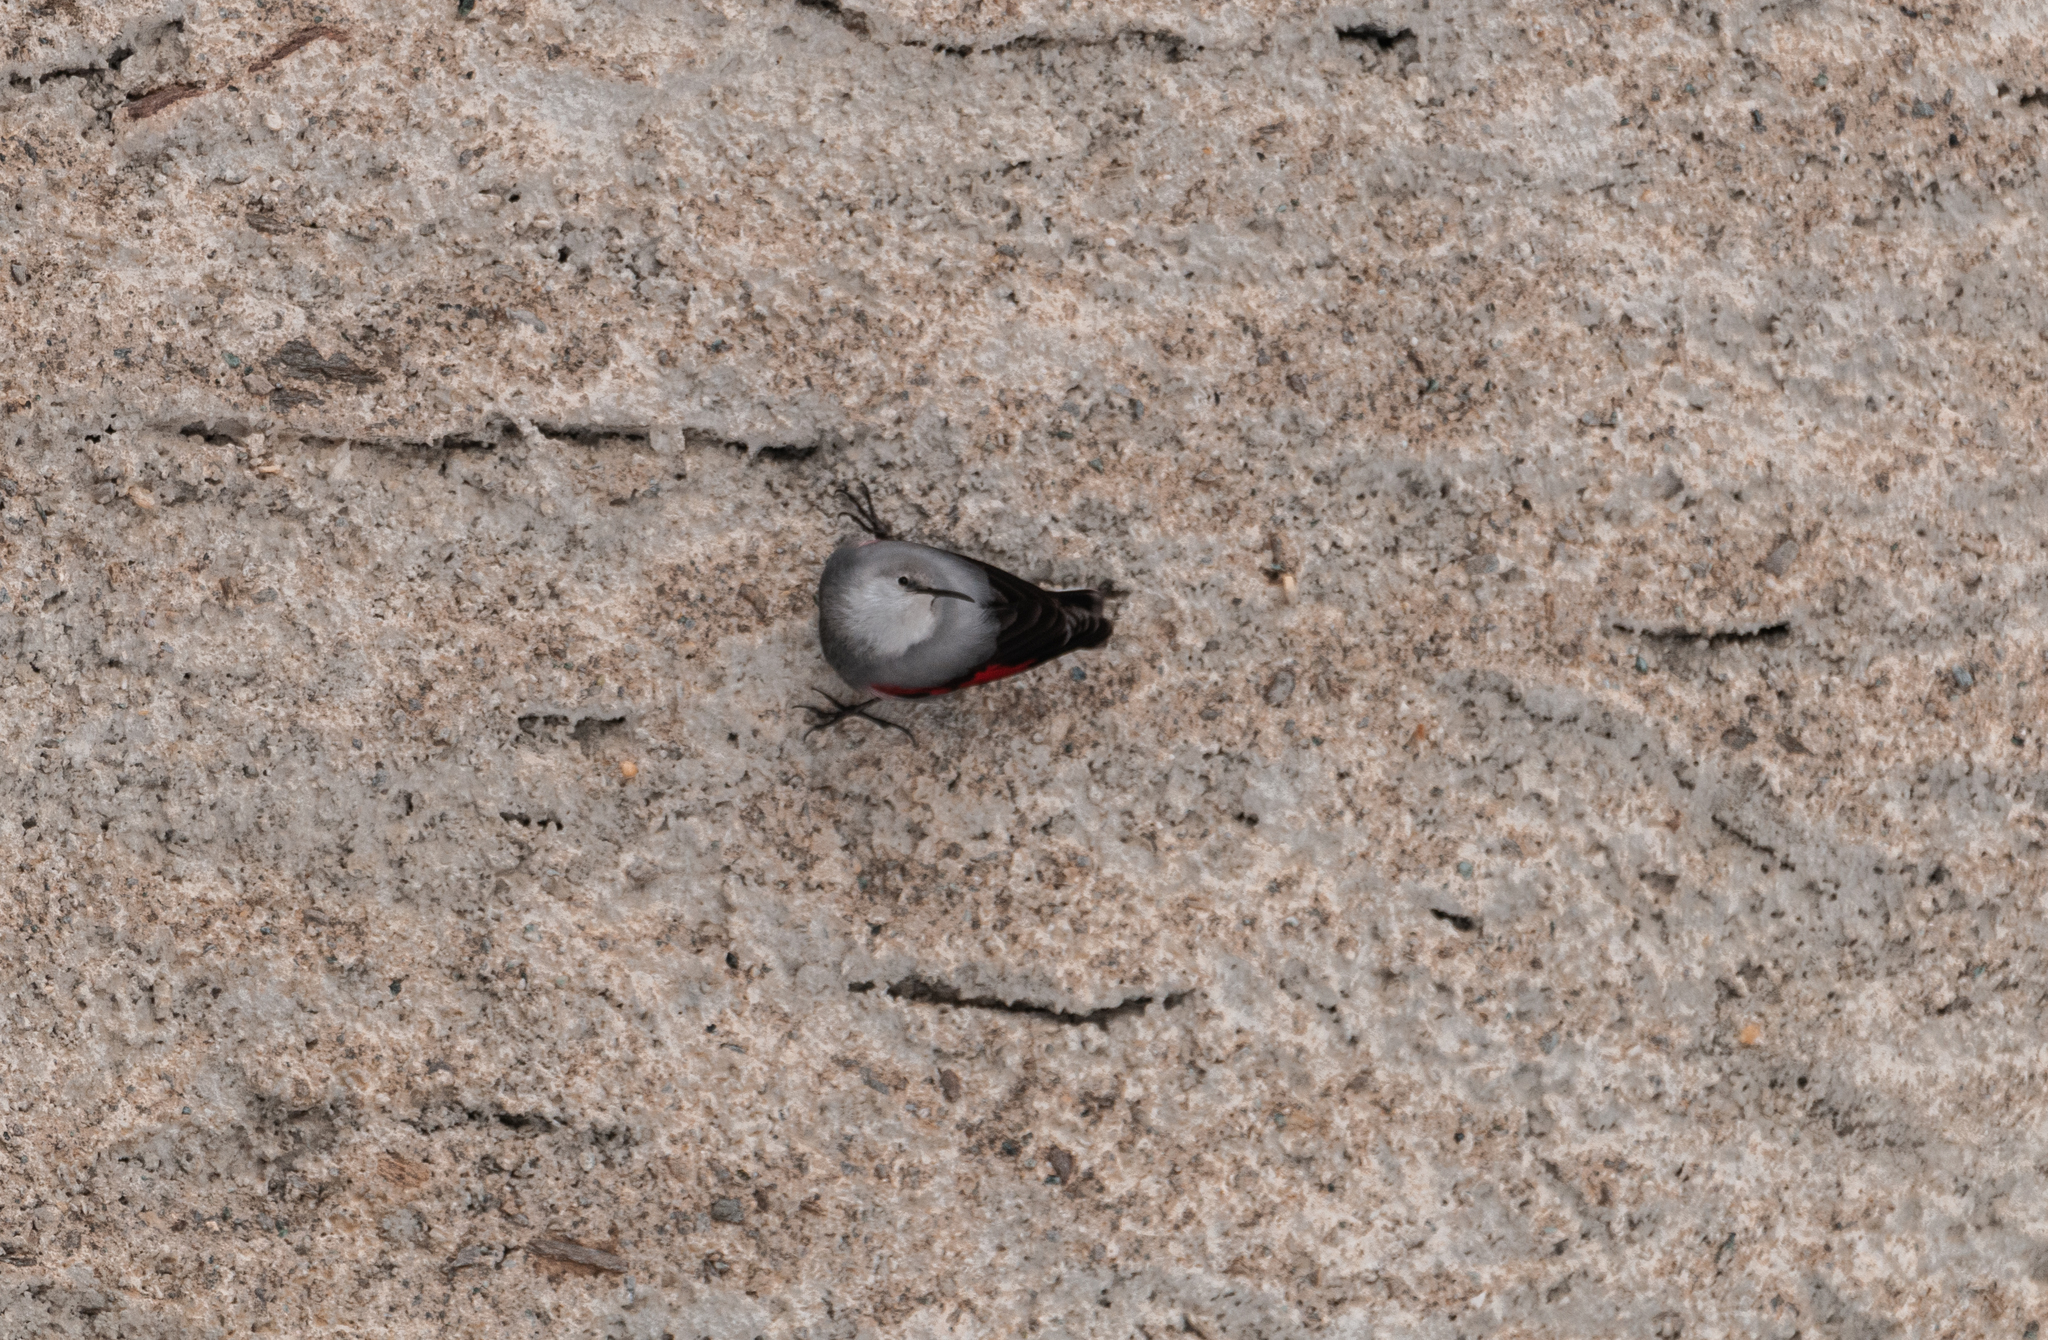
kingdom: Animalia
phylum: Chordata
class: Aves
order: Passeriformes
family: Tichodromidae
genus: Tichodroma
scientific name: Tichodroma muraria
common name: Wallcreeper
